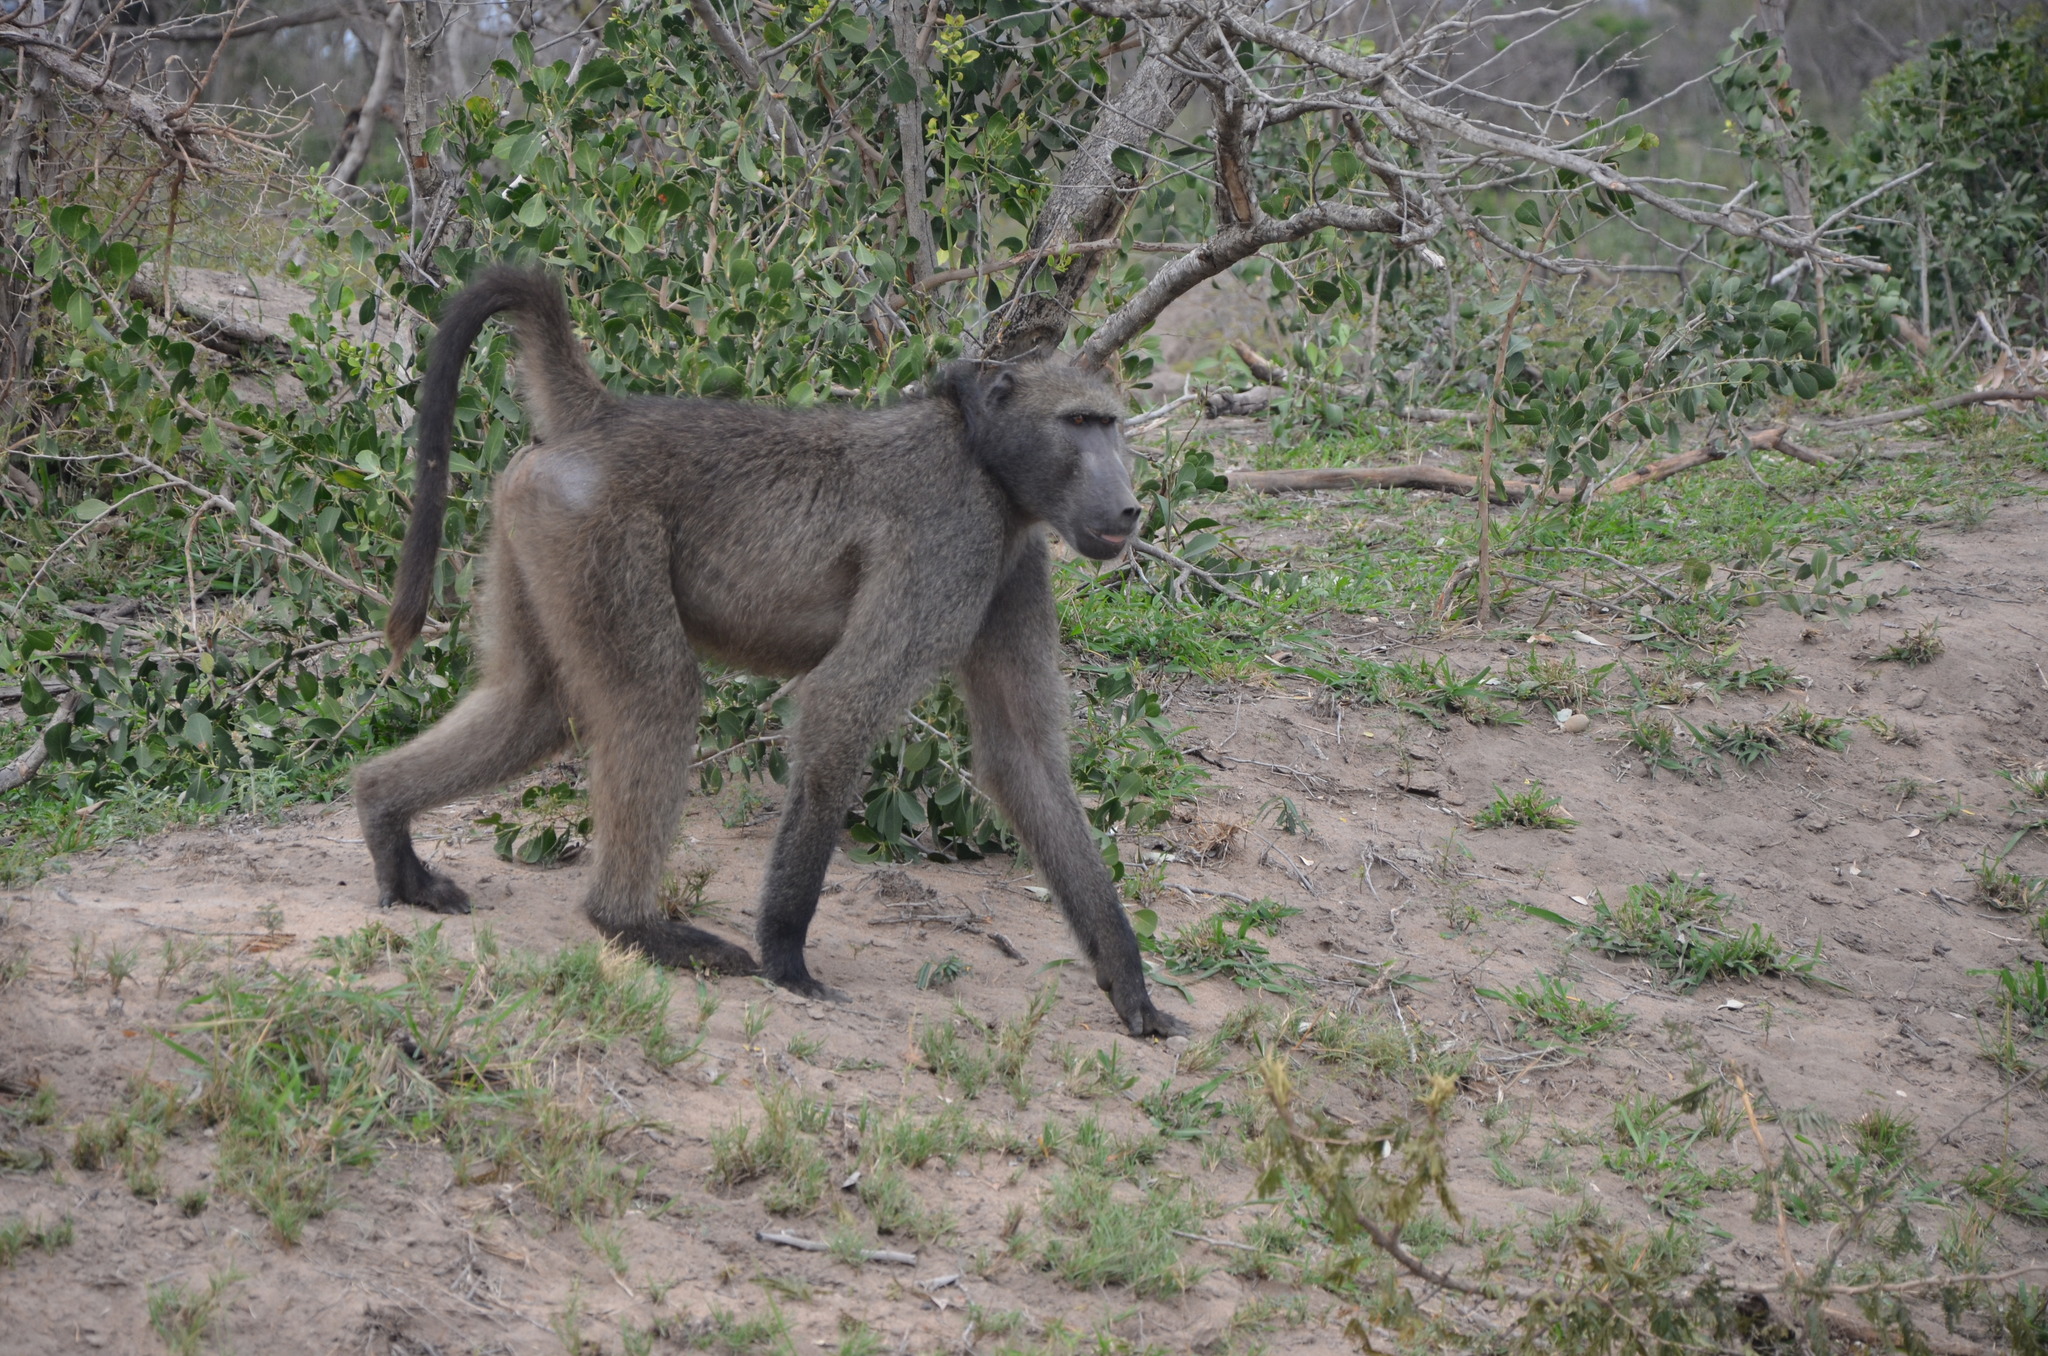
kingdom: Animalia
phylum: Chordata
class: Mammalia
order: Primates
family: Cercopithecidae
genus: Papio
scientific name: Papio ursinus
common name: Chacma baboon
